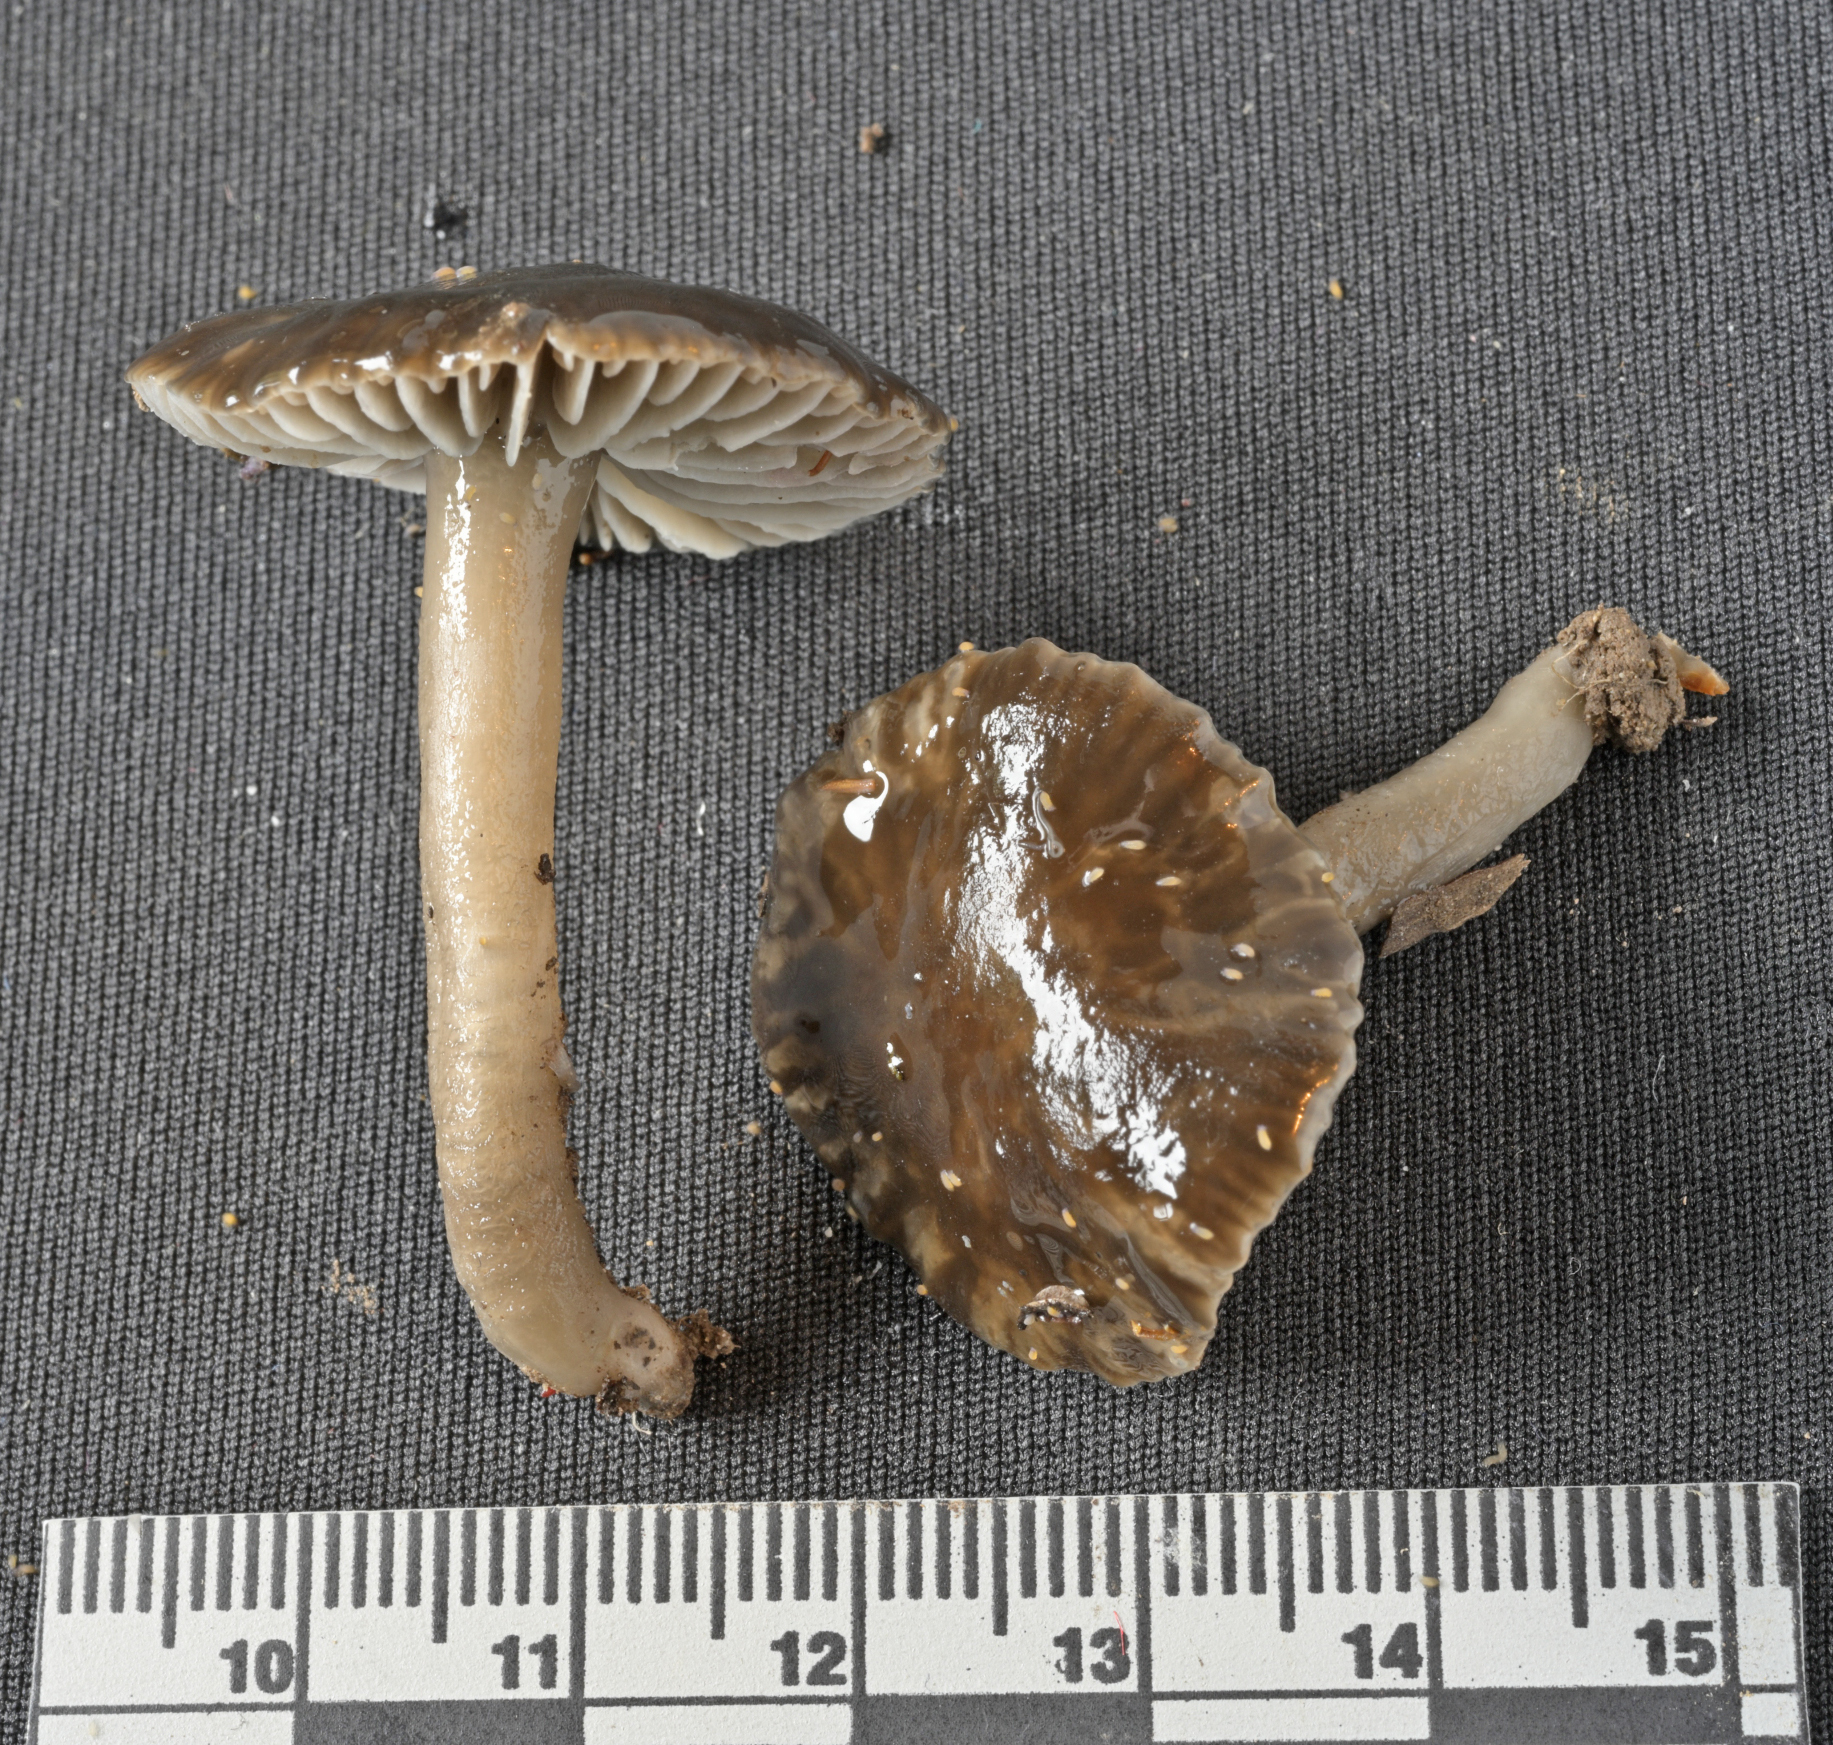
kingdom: Fungi
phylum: Basidiomycota
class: Agaricomycetes
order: Agaricales
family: Hygrophoraceae
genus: Hygrocybe
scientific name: Hygrocybe fumosogrisea
